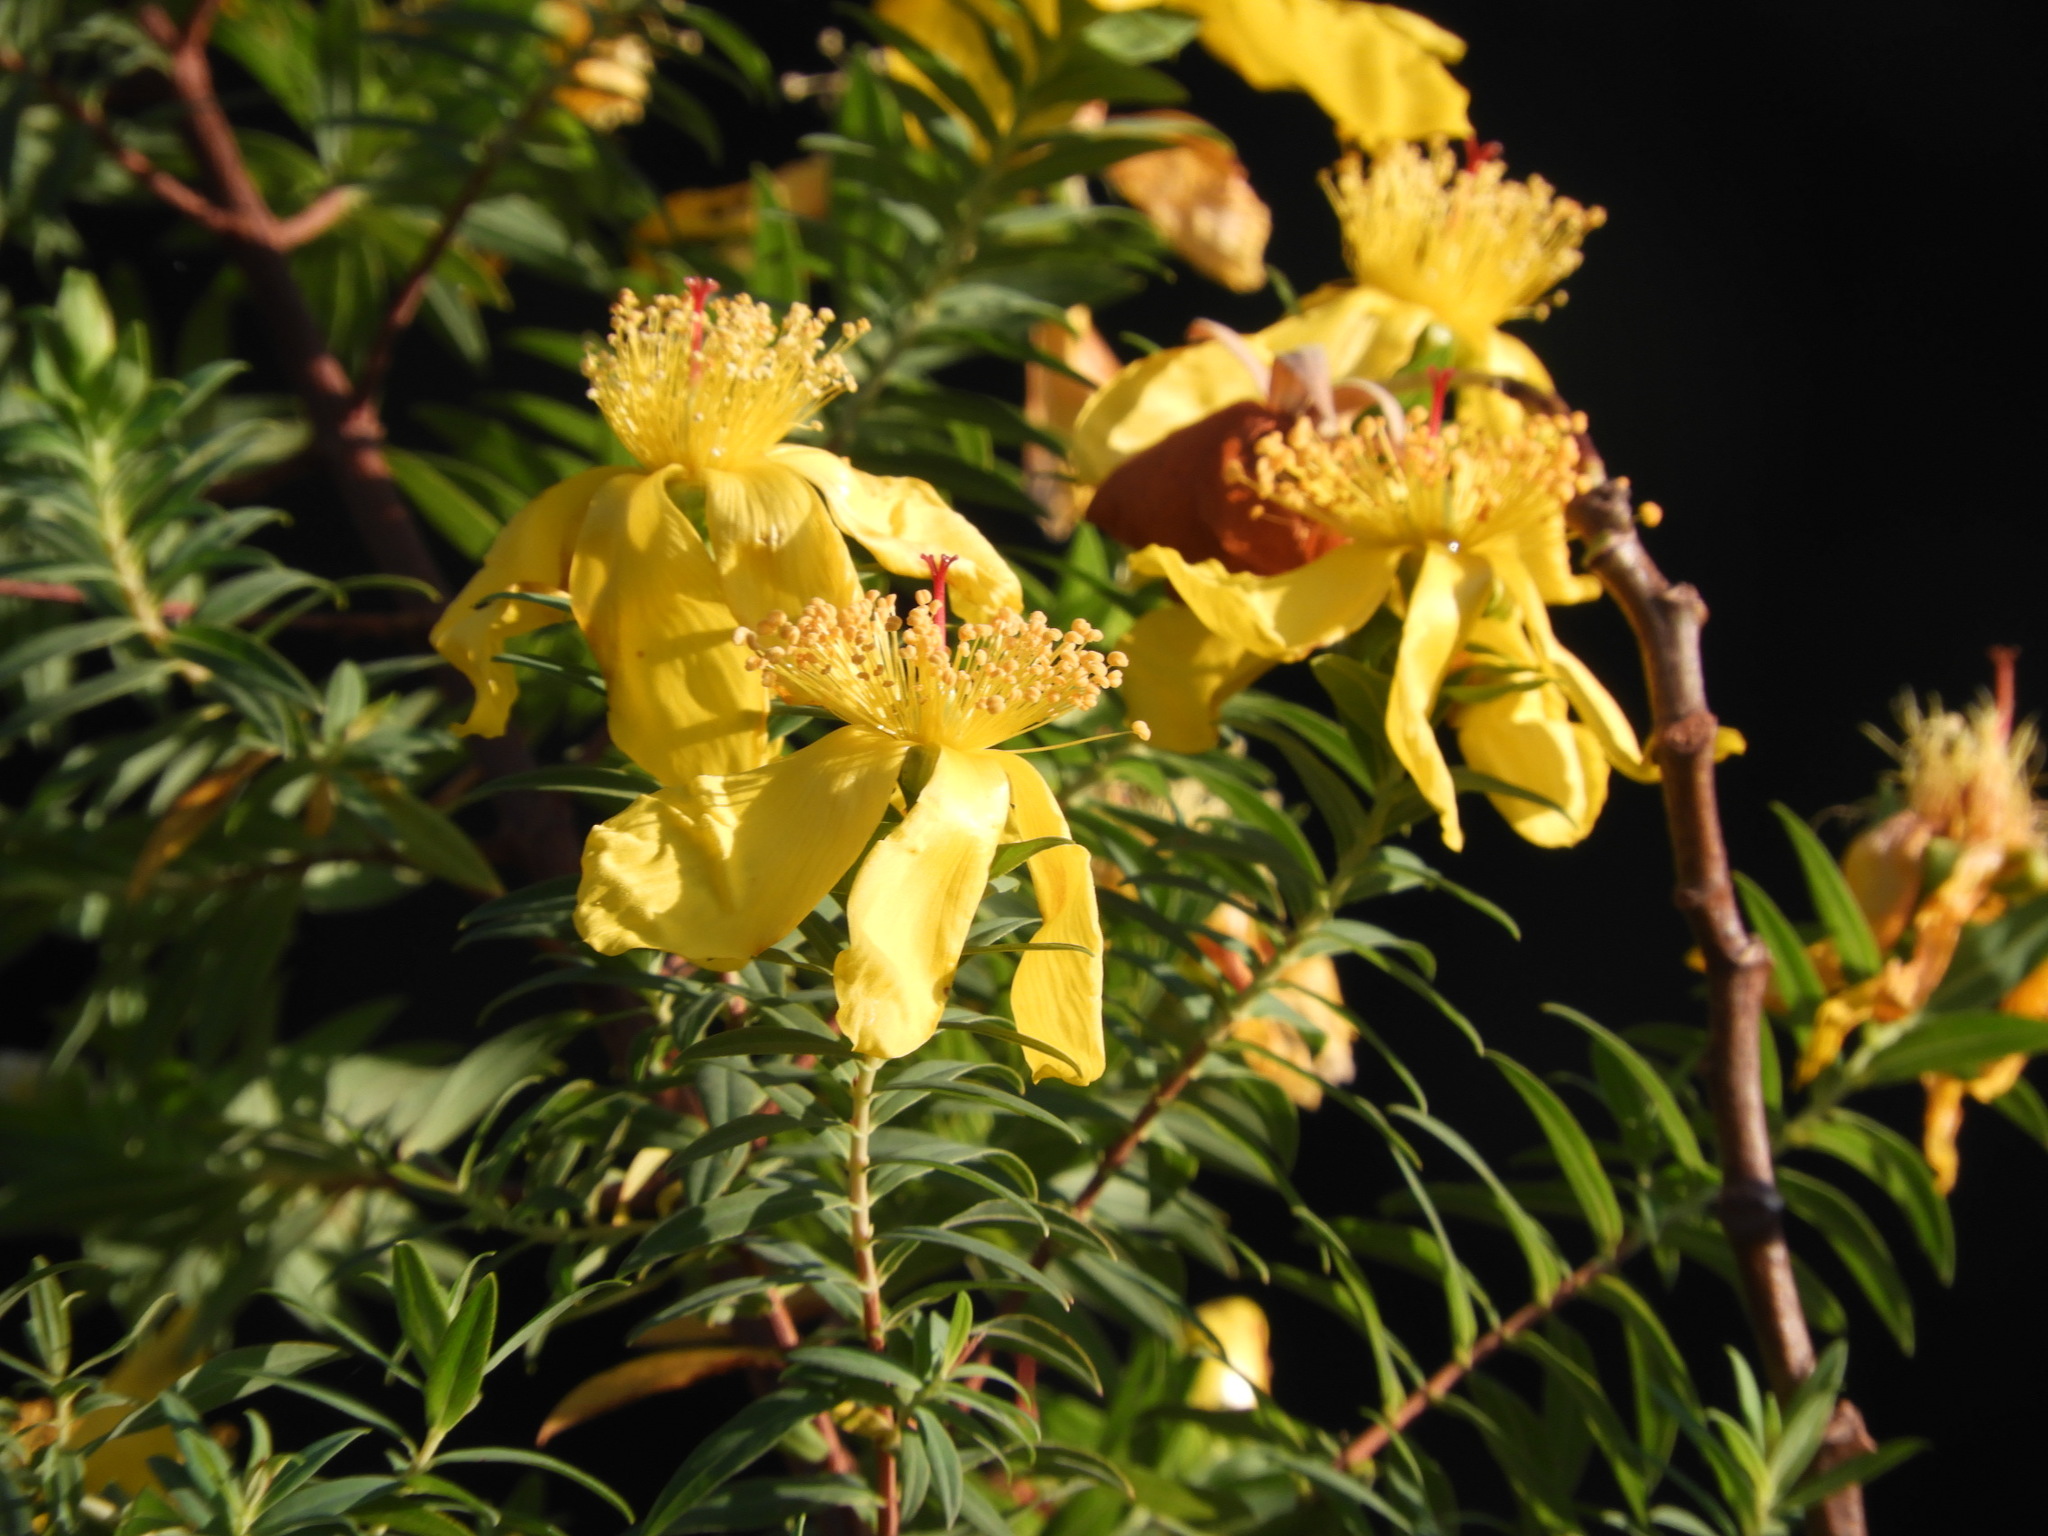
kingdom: Plantae
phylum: Tracheophyta
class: Magnoliopsida
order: Malpighiales
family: Hypericaceae
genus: Hypericum
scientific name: Hypericum revolutum
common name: Curry bush
